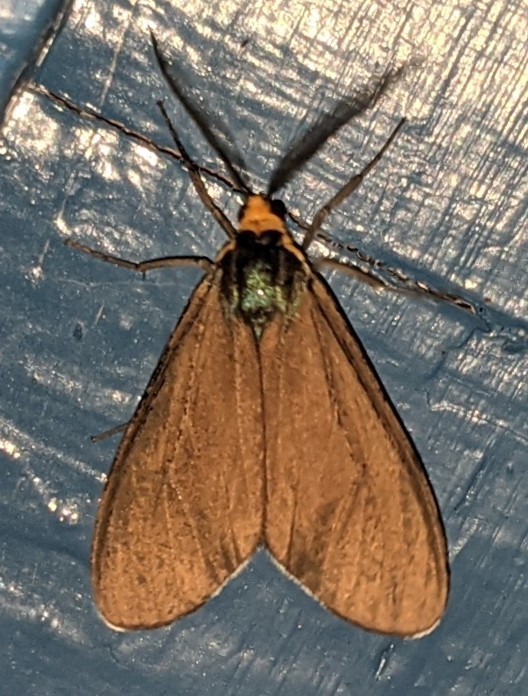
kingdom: Animalia
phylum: Arthropoda
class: Insecta
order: Lepidoptera
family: Erebidae
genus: Ctenucha
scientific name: Ctenucha virginica
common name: Virginia ctenucha moth
